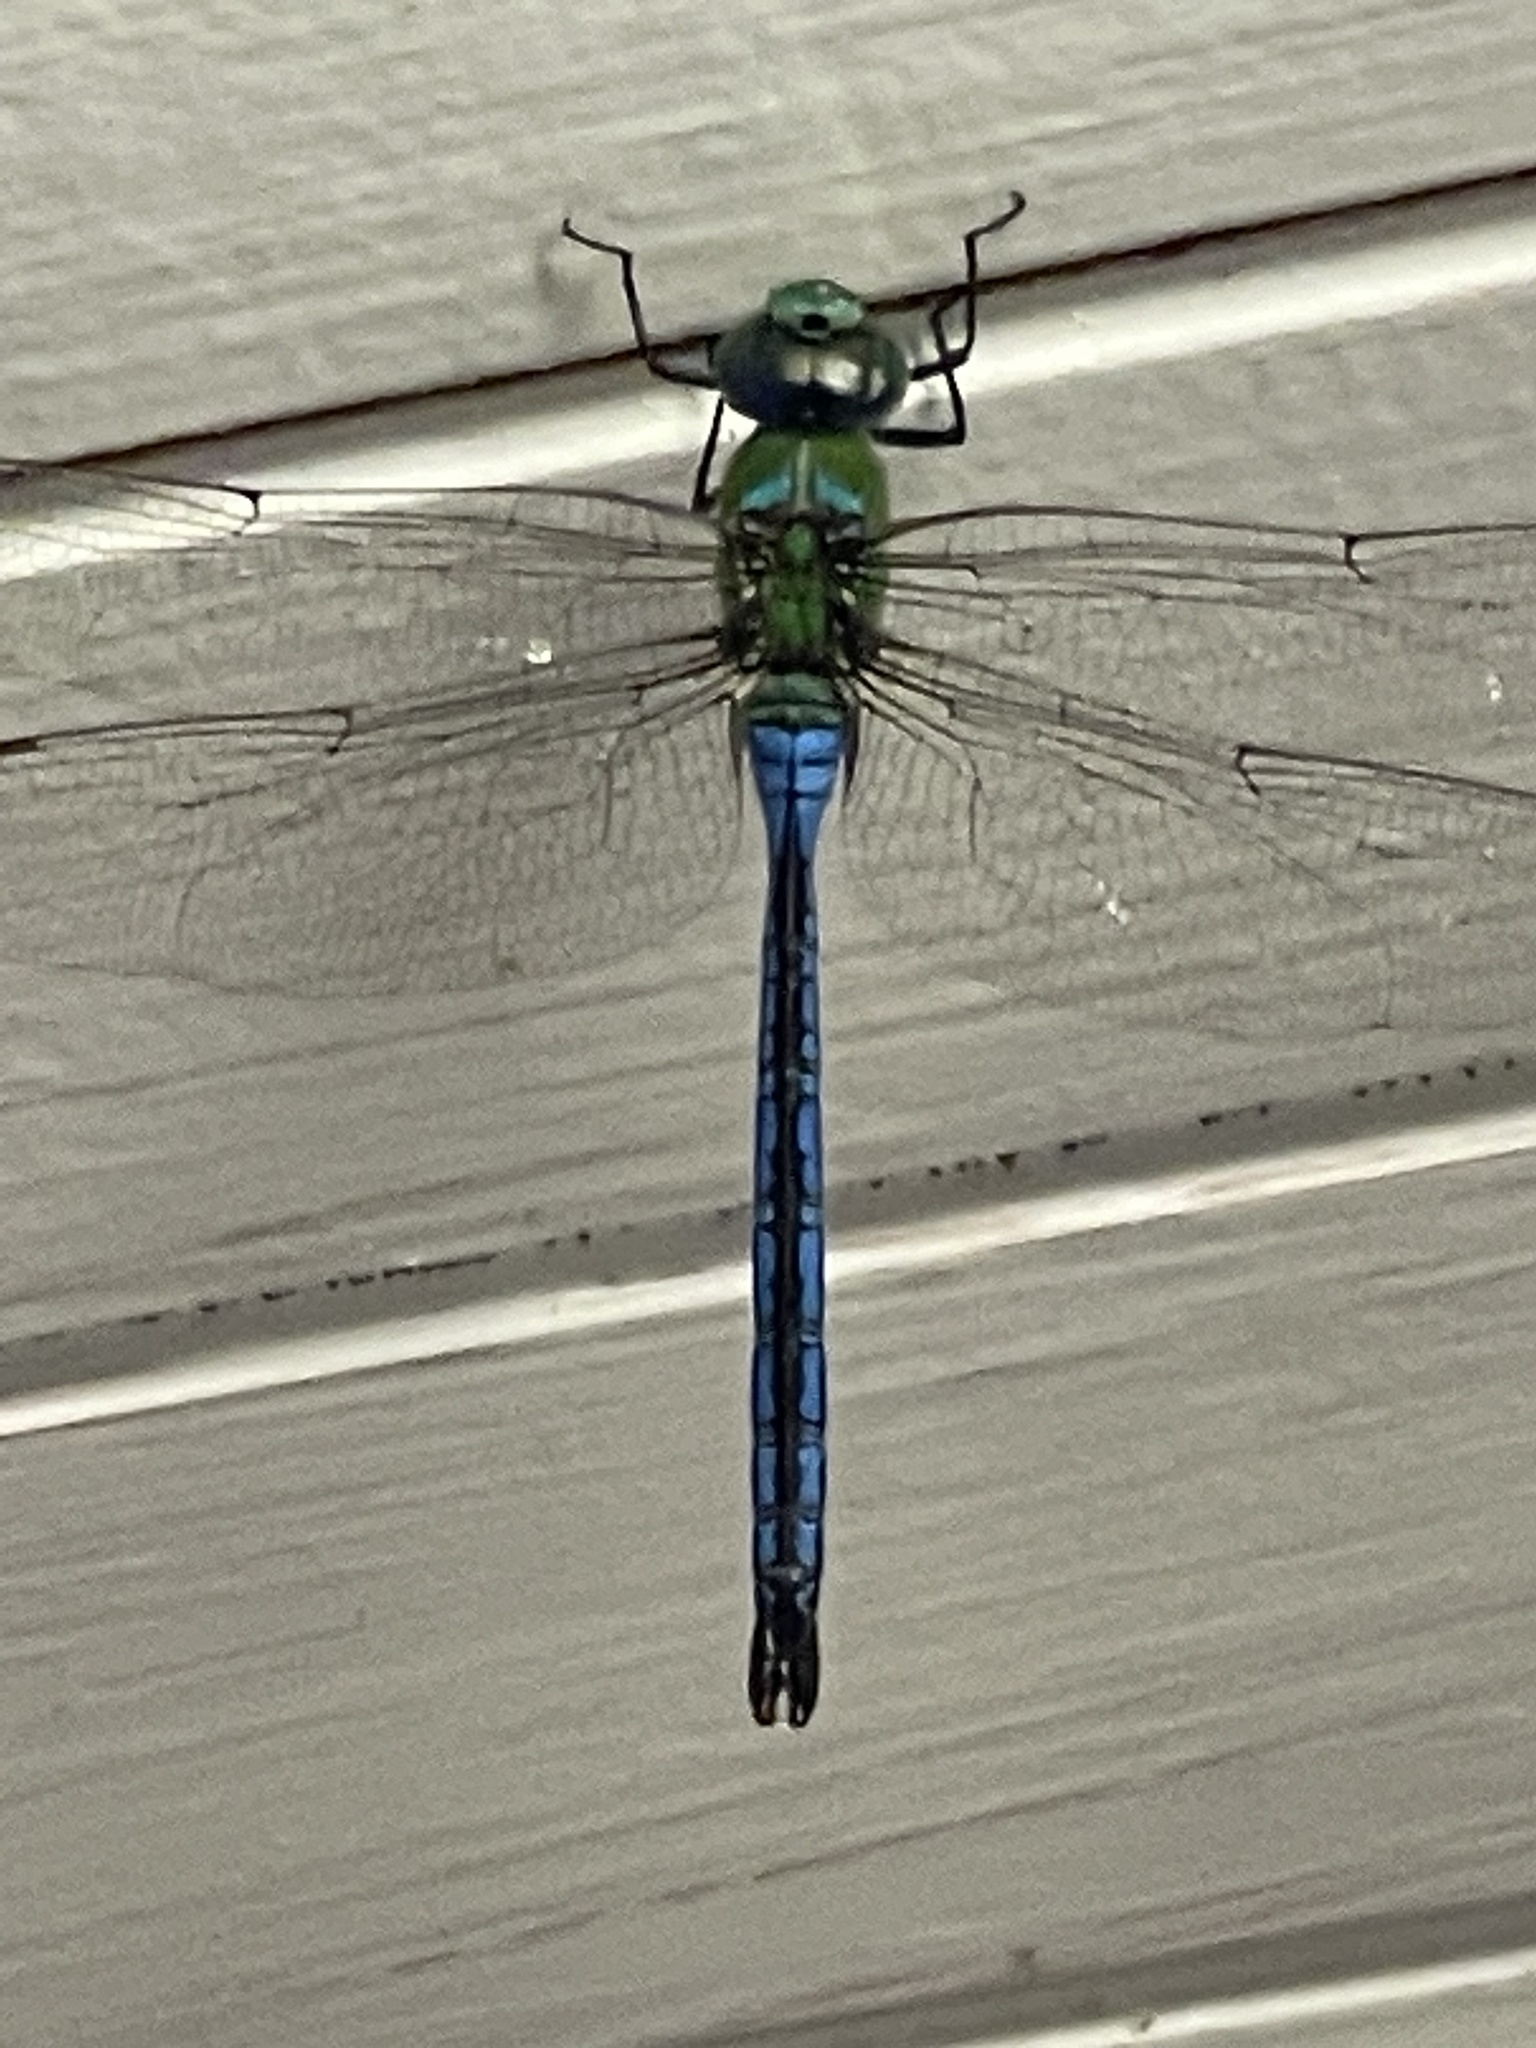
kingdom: Animalia
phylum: Arthropoda
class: Insecta
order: Odonata
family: Aeshnidae
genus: Anax
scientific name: Anax imperator
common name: Emperor dragonfly
